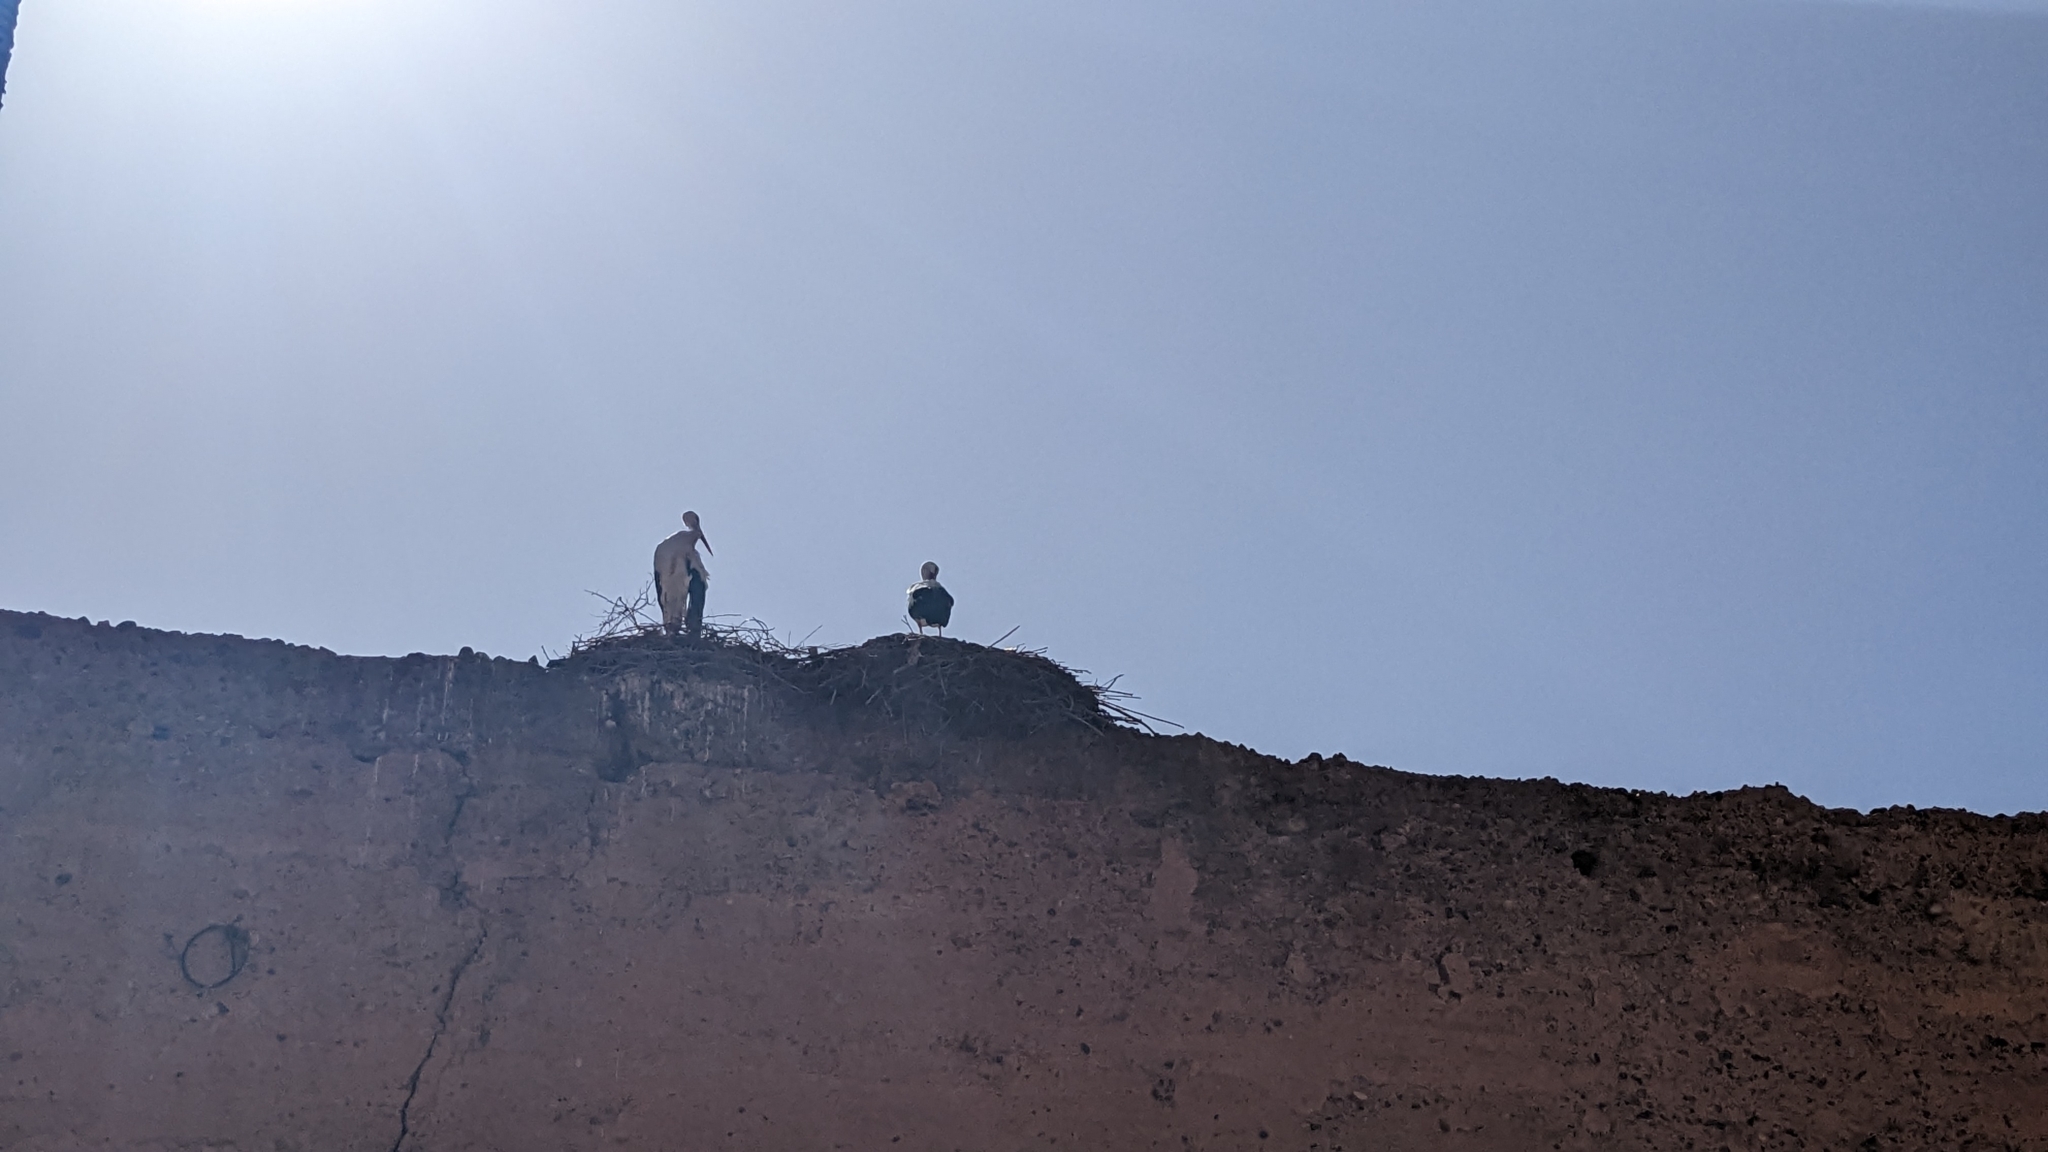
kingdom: Animalia
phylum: Chordata
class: Aves
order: Ciconiiformes
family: Ciconiidae
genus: Ciconia
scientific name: Ciconia ciconia
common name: White stork
